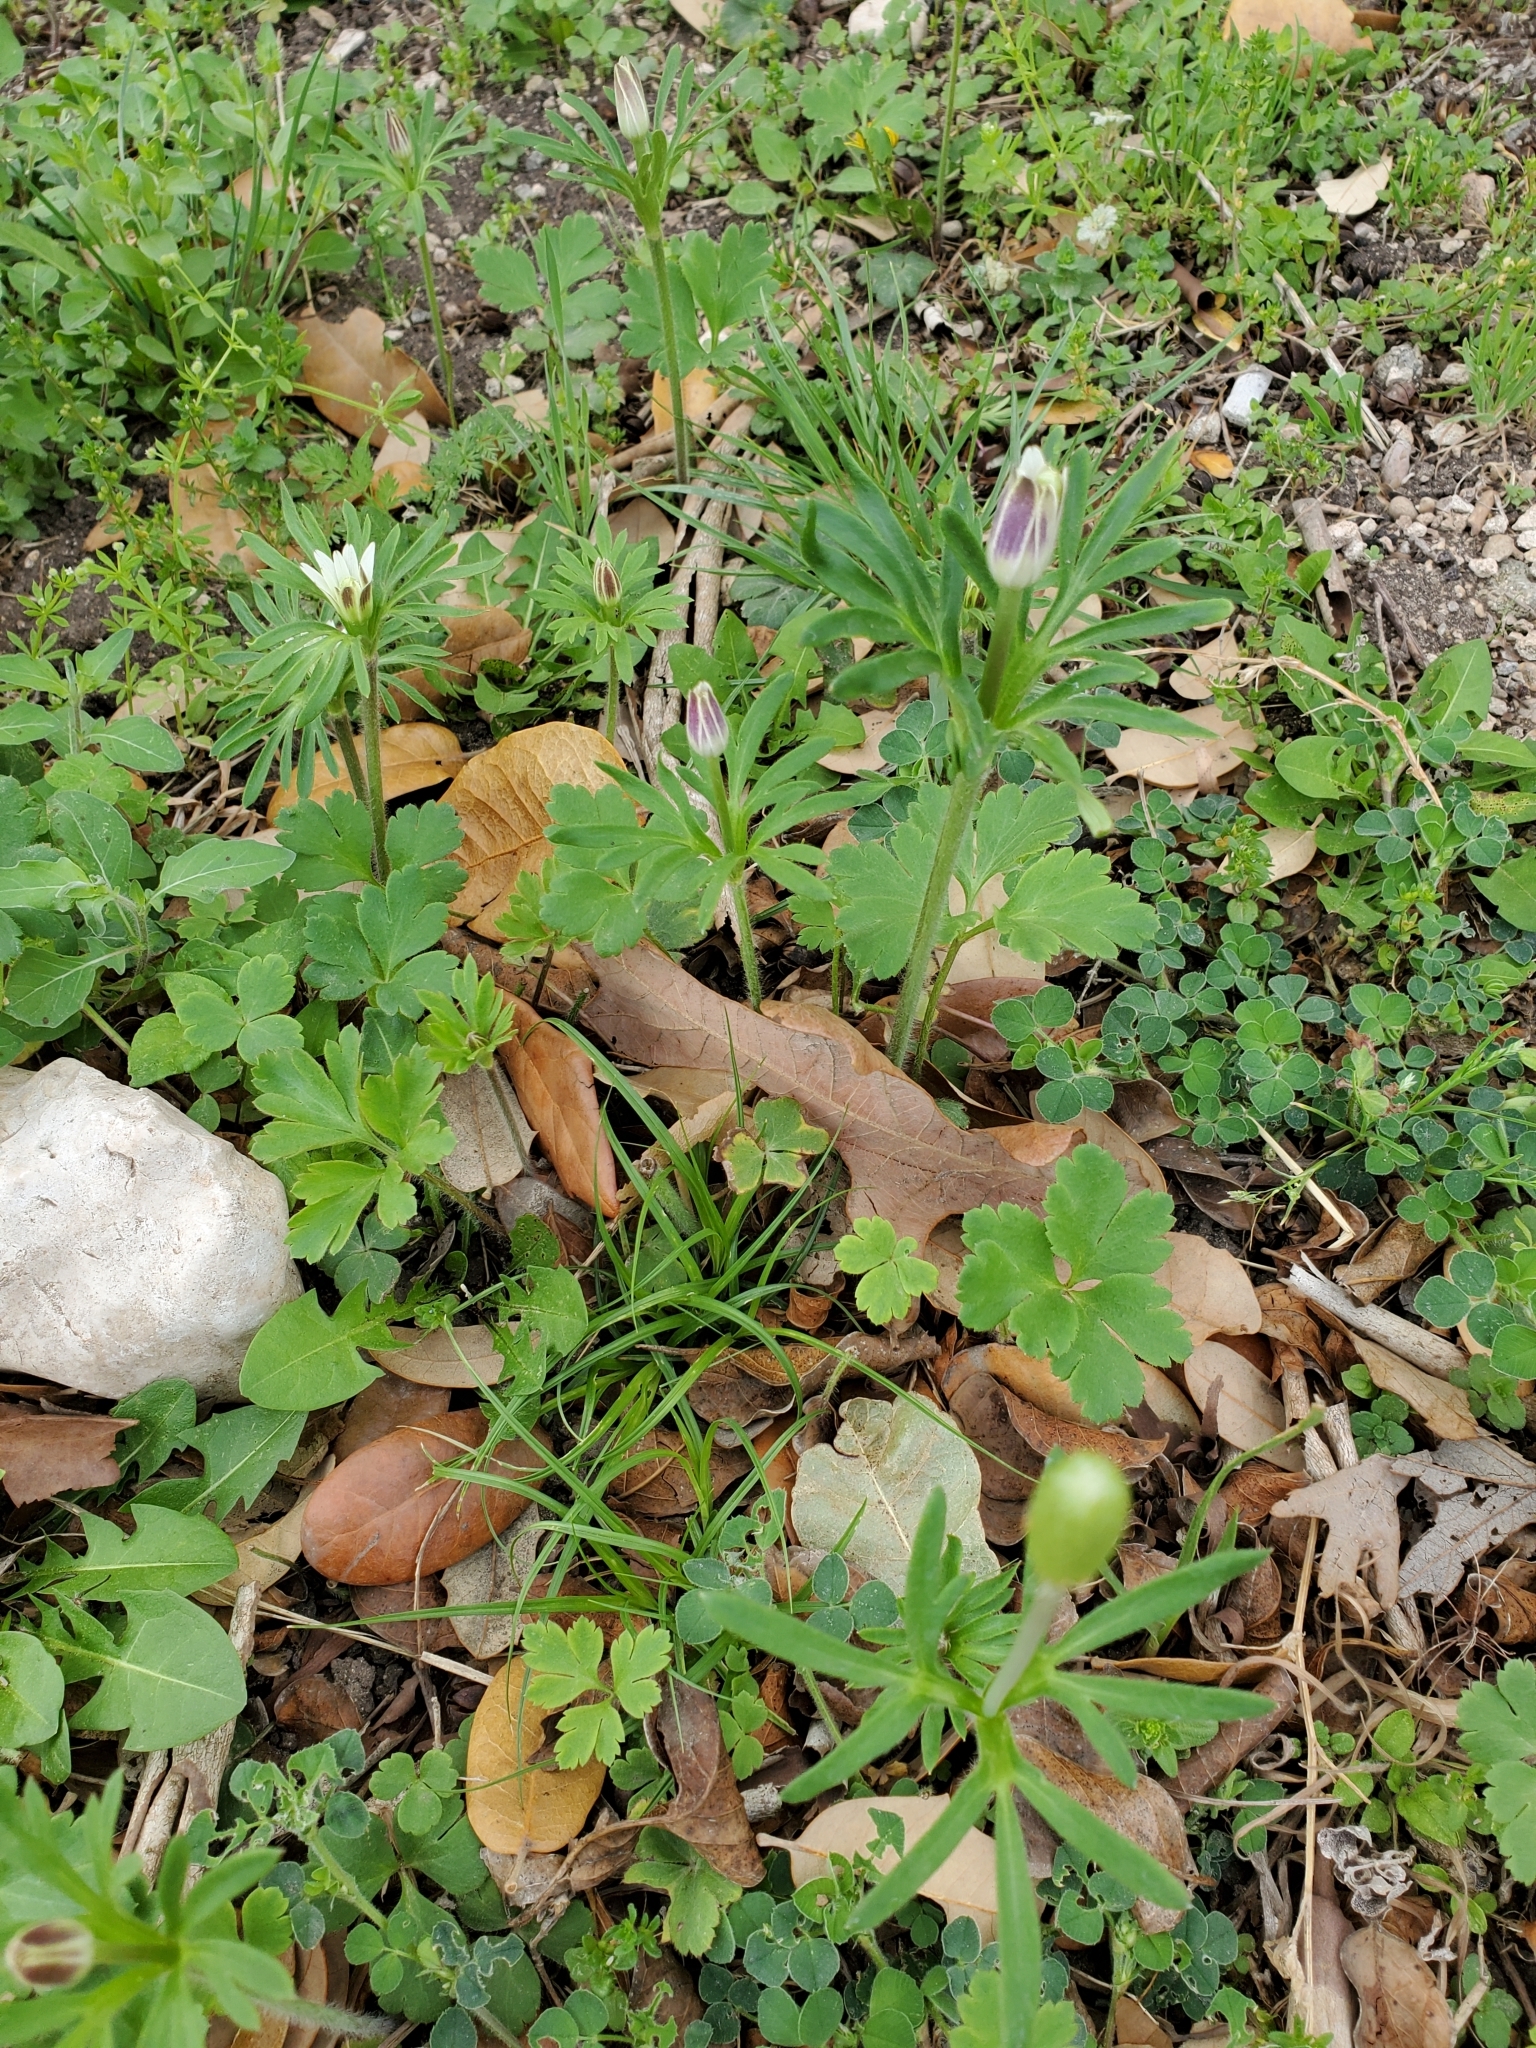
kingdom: Plantae
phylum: Tracheophyta
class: Magnoliopsida
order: Ranunculales
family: Ranunculaceae
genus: Anemone
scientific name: Anemone berlandieri
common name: Ten-petal anemone
